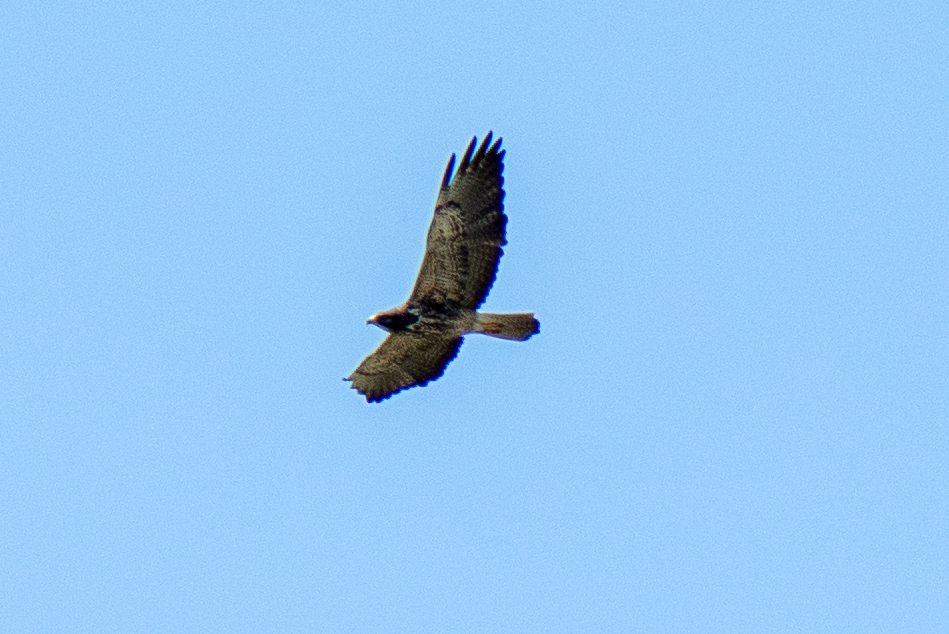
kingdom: Animalia
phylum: Chordata
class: Aves
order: Accipitriformes
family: Accipitridae
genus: Buteo
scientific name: Buteo swainsoni
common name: Swainson's hawk
